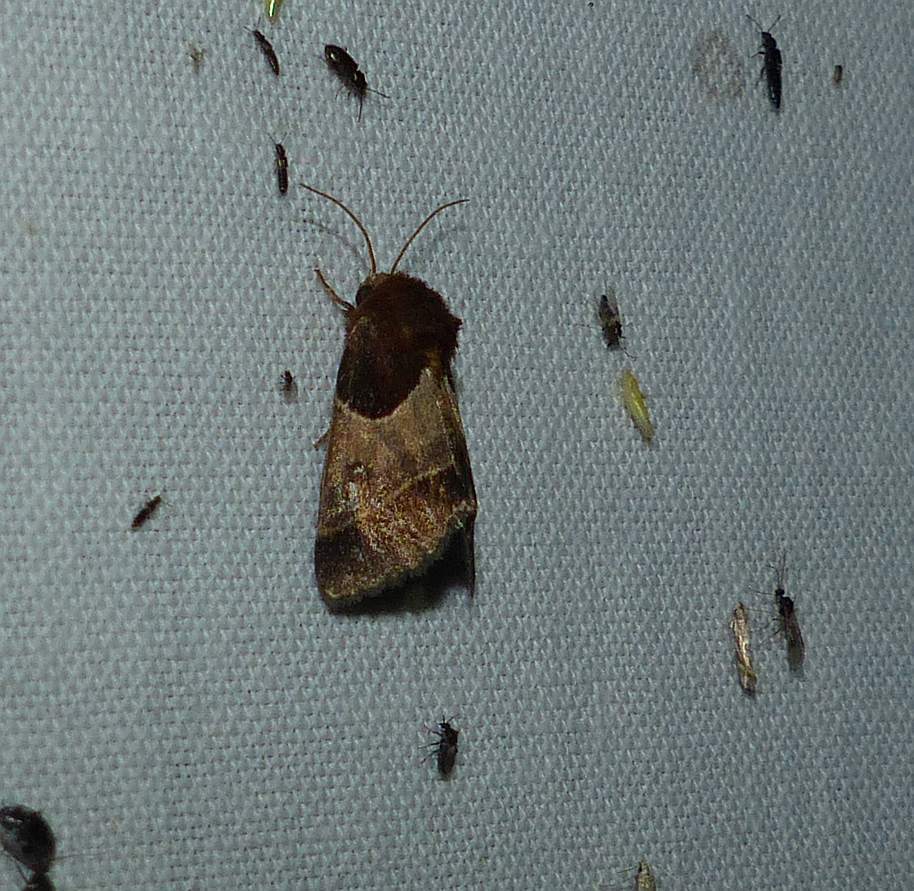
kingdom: Animalia
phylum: Arthropoda
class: Insecta
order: Lepidoptera
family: Noctuidae
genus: Schinia
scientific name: Schinia arcigera
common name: Arcigera flower moth
